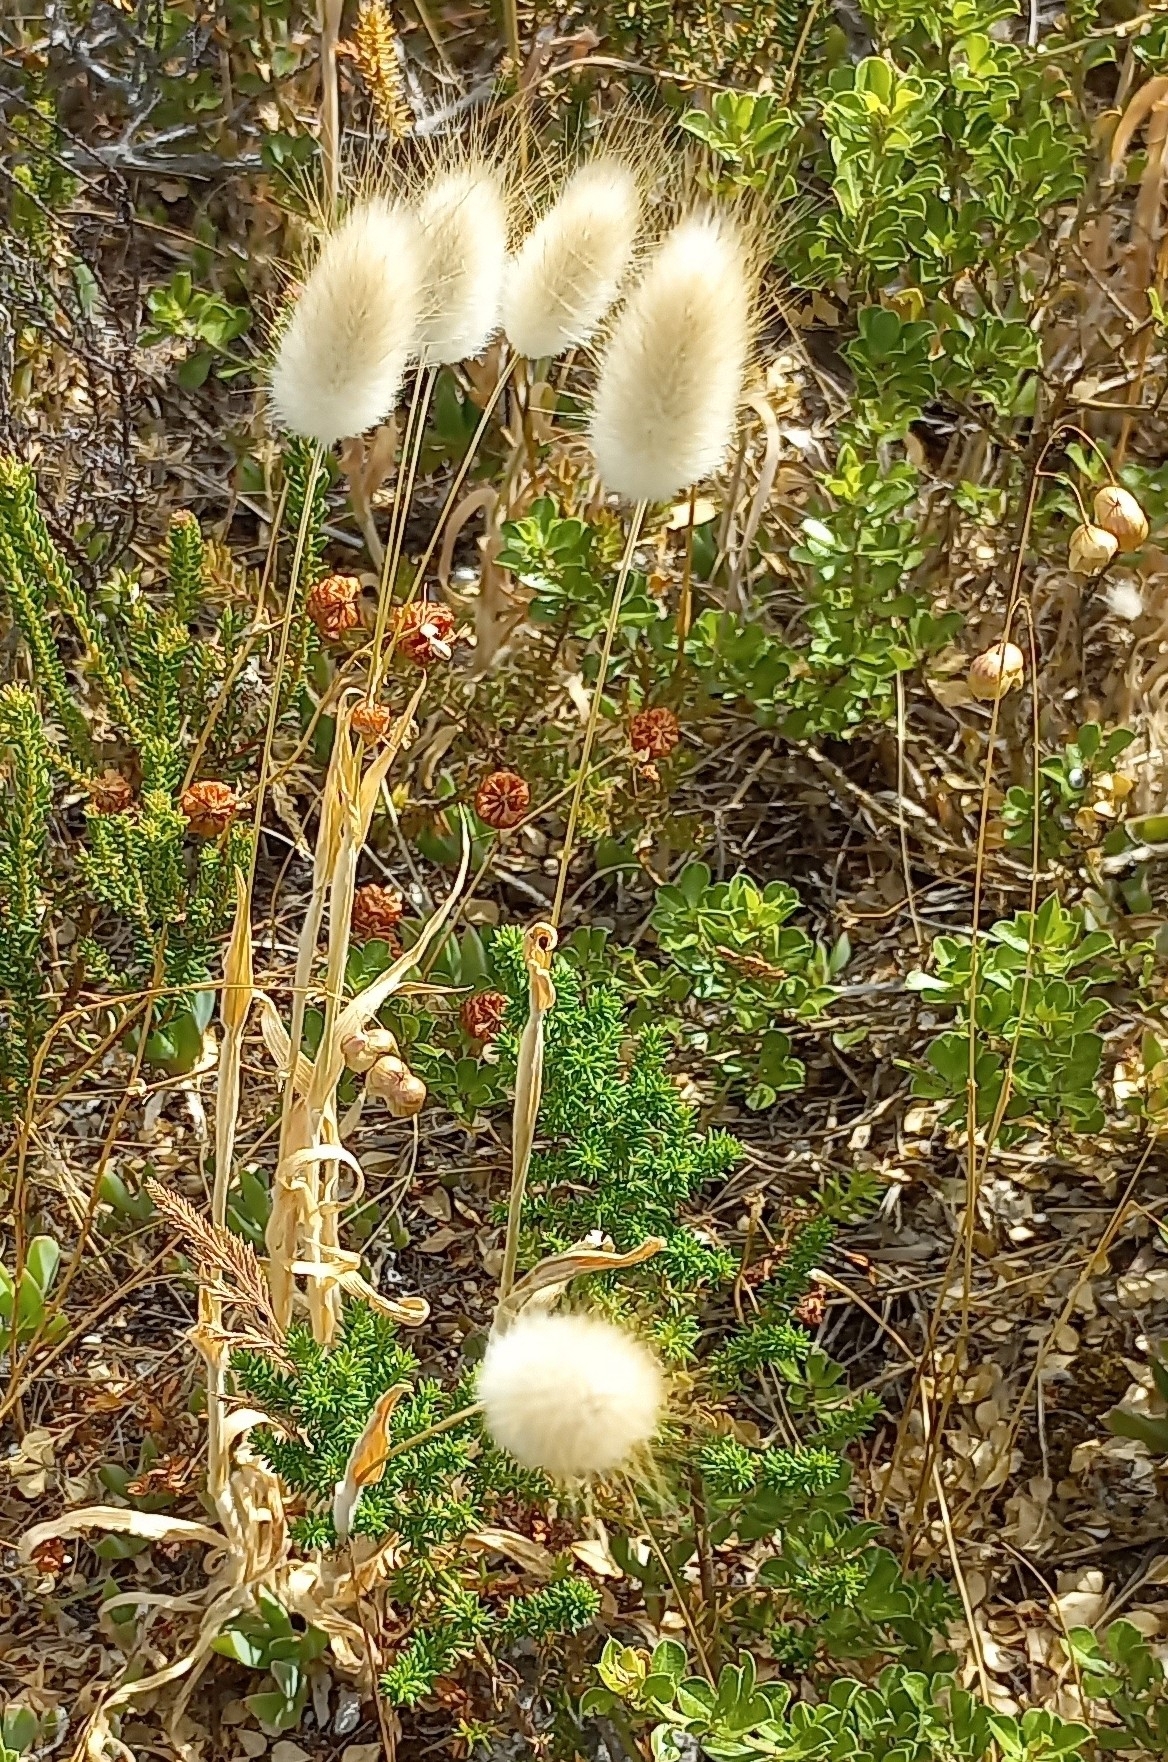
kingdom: Plantae
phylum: Tracheophyta
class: Liliopsida
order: Poales
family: Poaceae
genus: Lagurus
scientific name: Lagurus ovatus
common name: Hare's-tail
